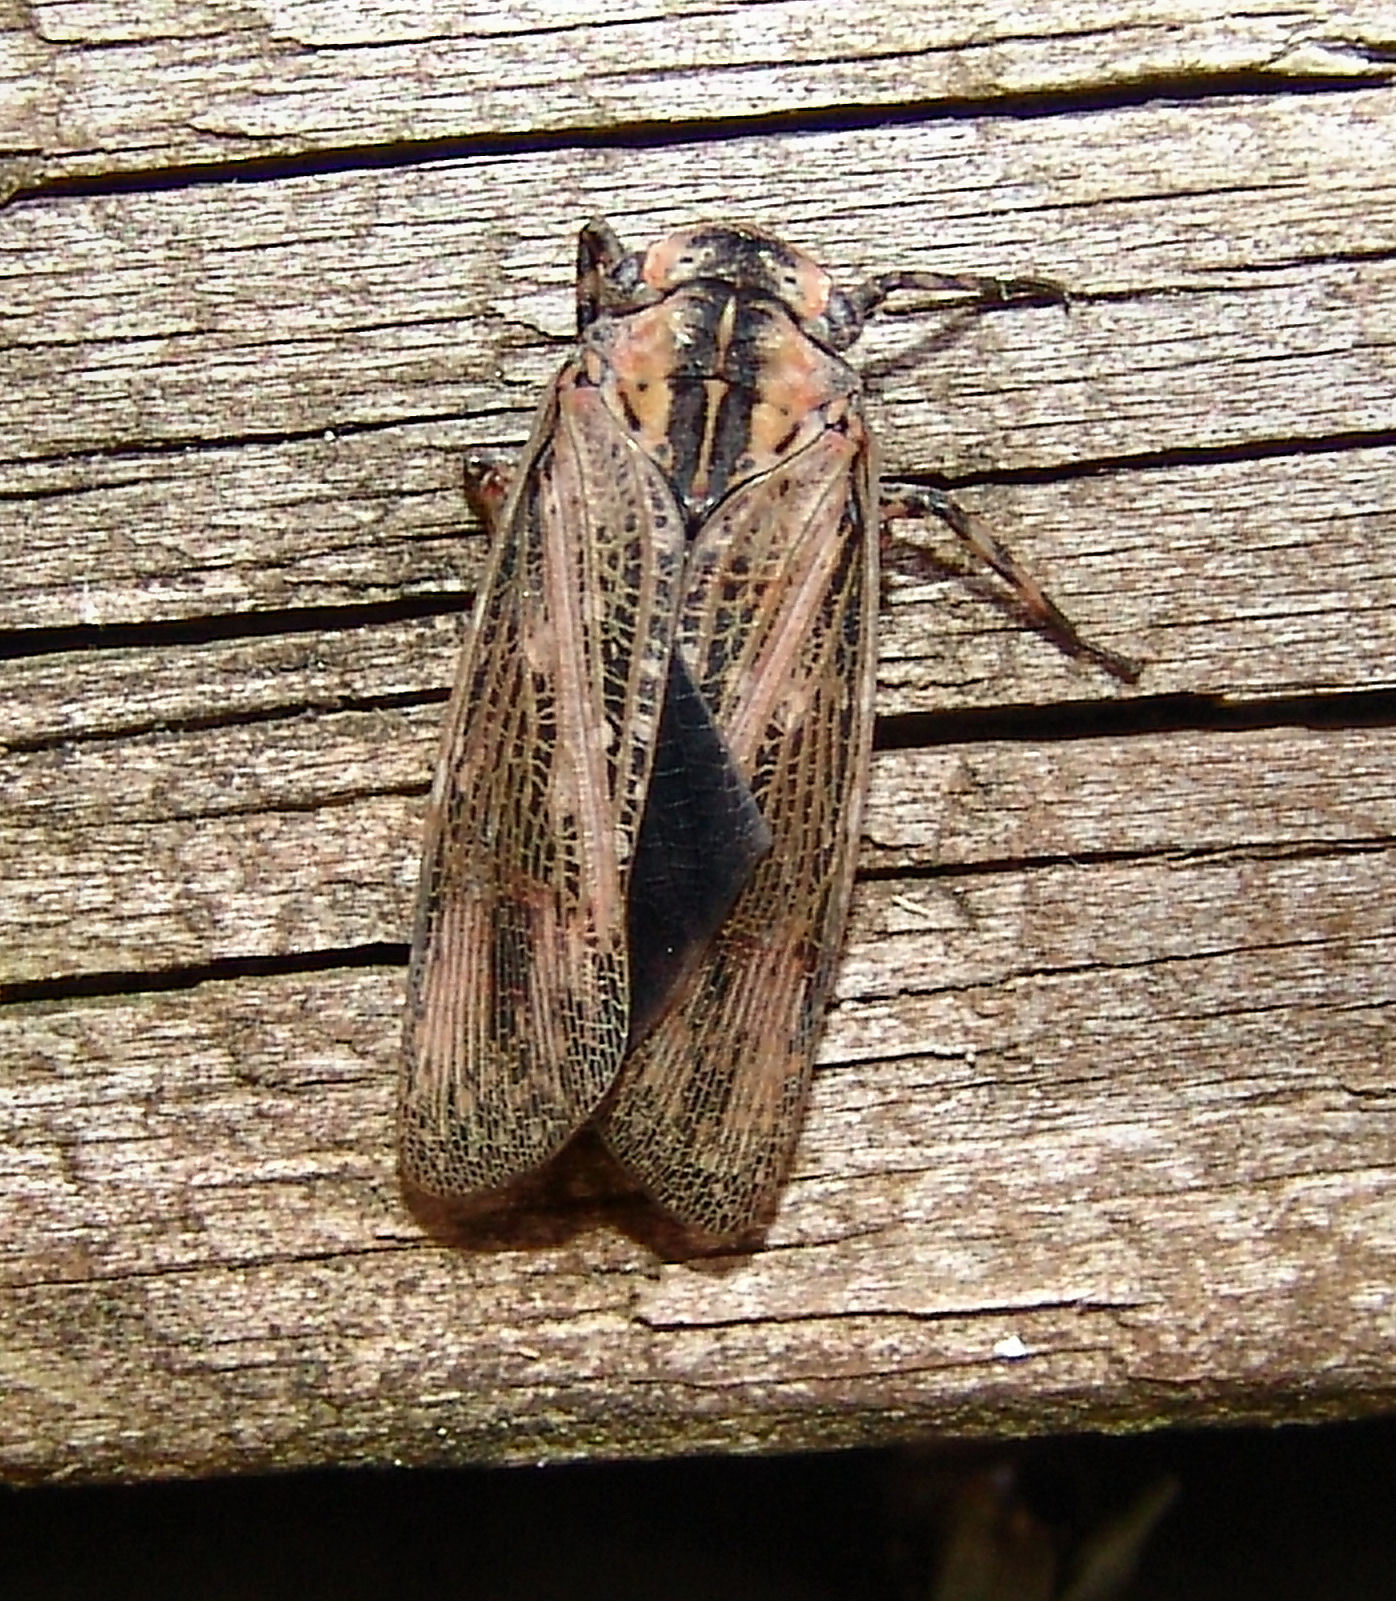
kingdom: Animalia
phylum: Arthropoda
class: Insecta
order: Hemiptera
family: Fulgoridae
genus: Poblicia
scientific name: Poblicia texana
